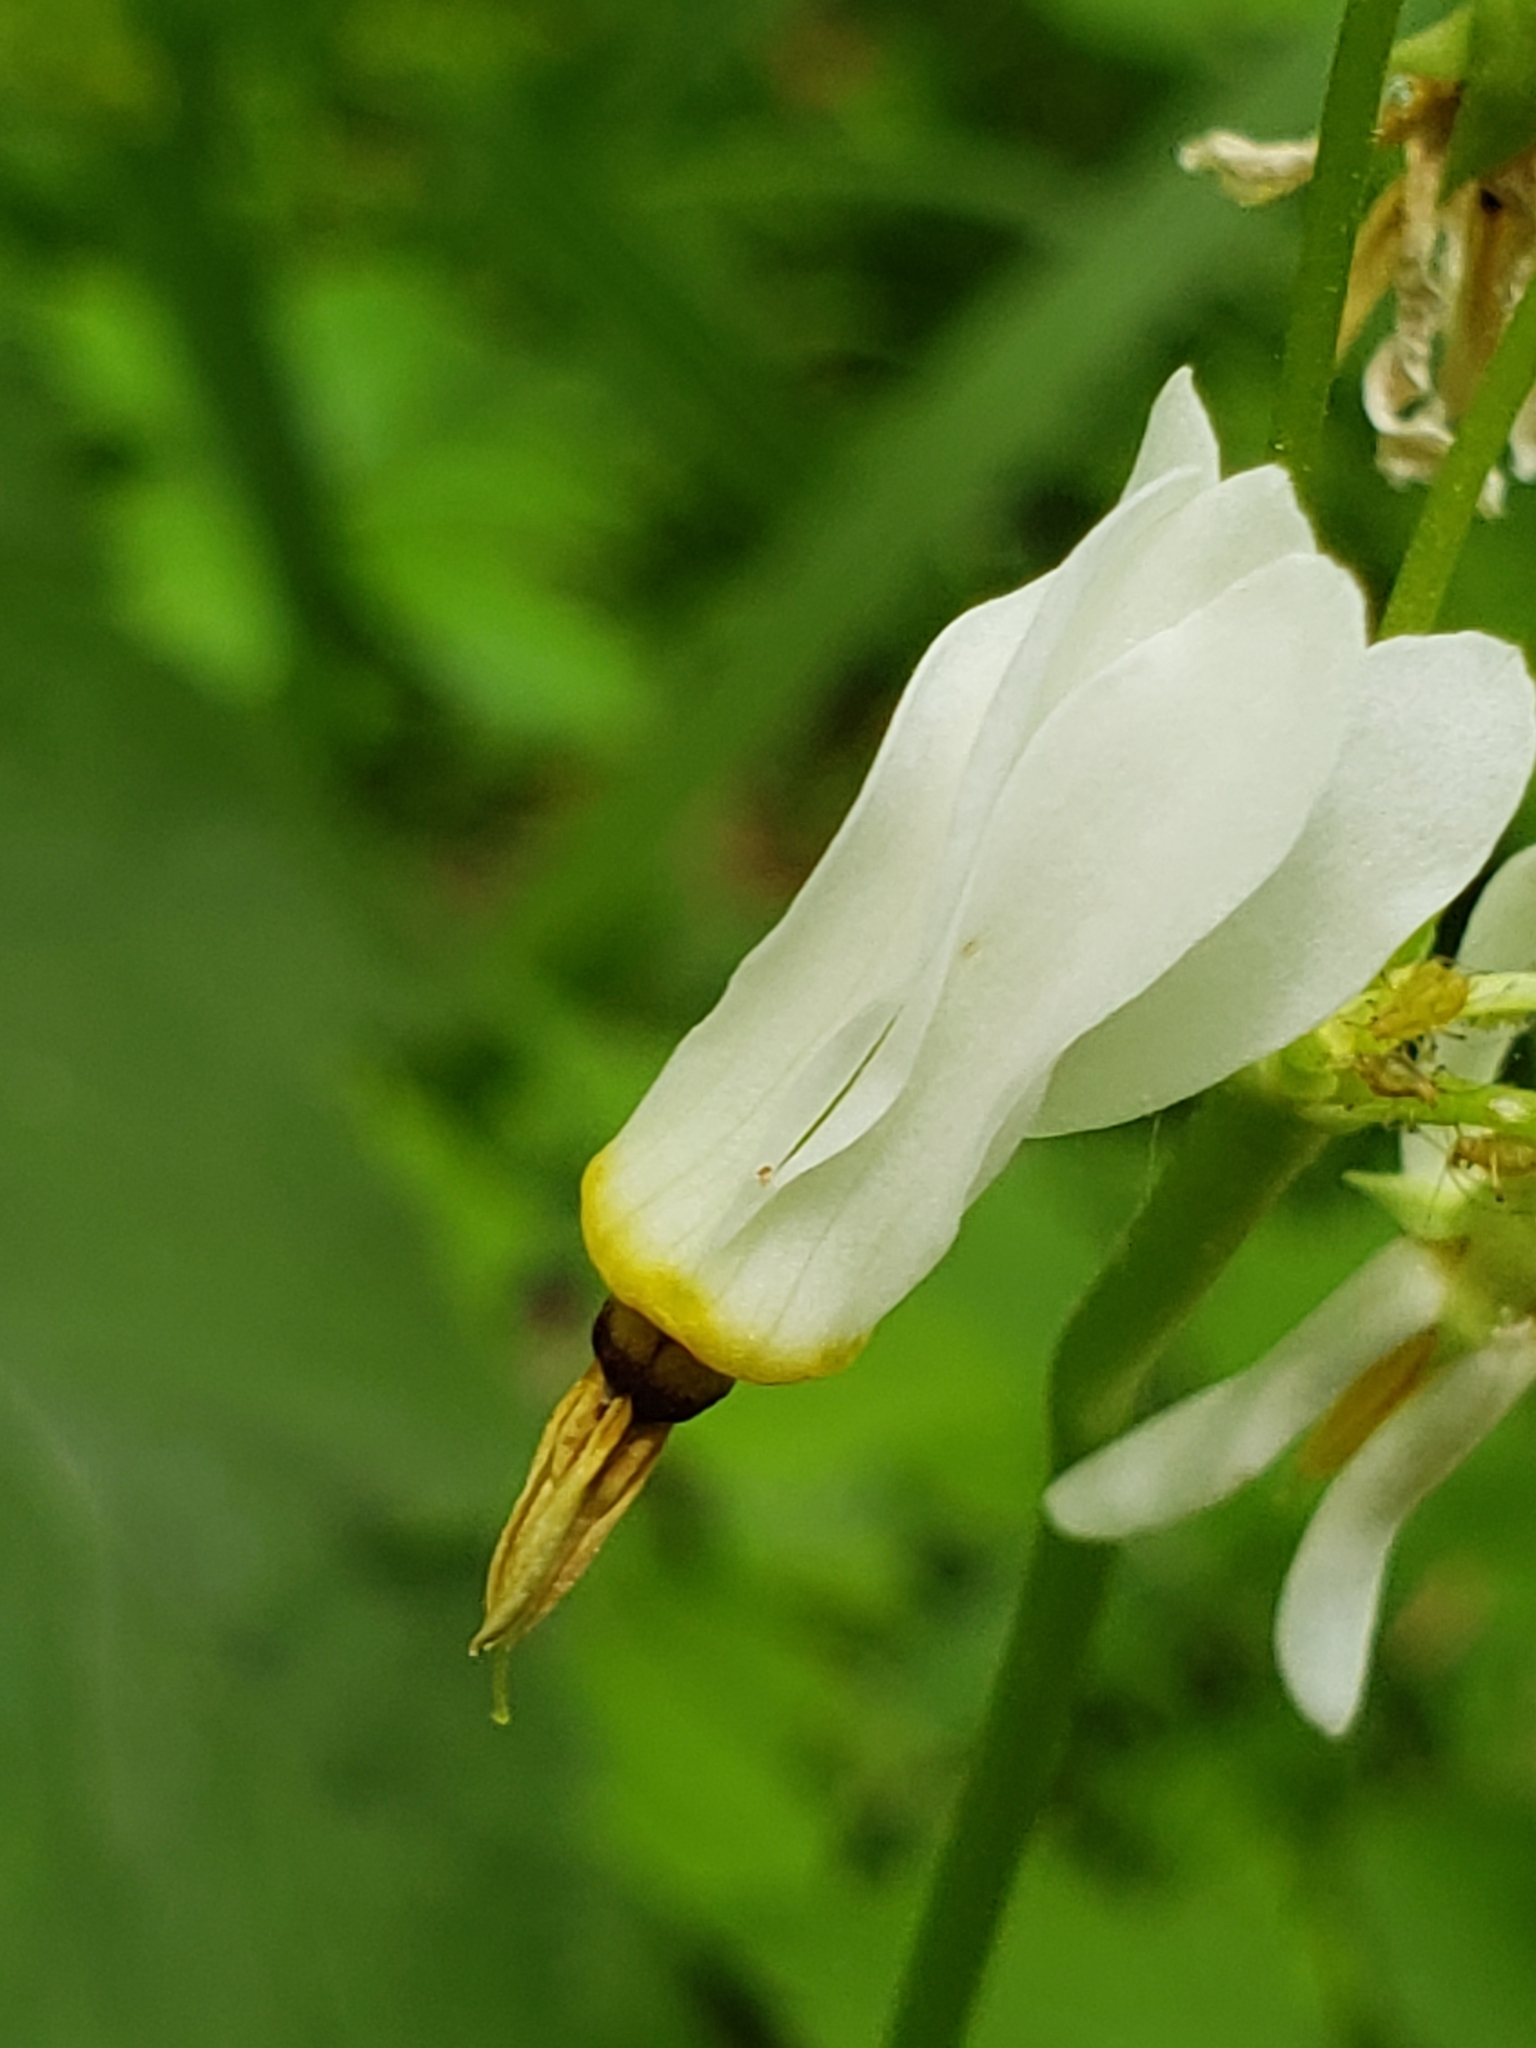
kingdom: Plantae
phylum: Tracheophyta
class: Magnoliopsida
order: Ericales
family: Primulaceae
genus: Dodecatheon
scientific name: Dodecatheon frenchii
